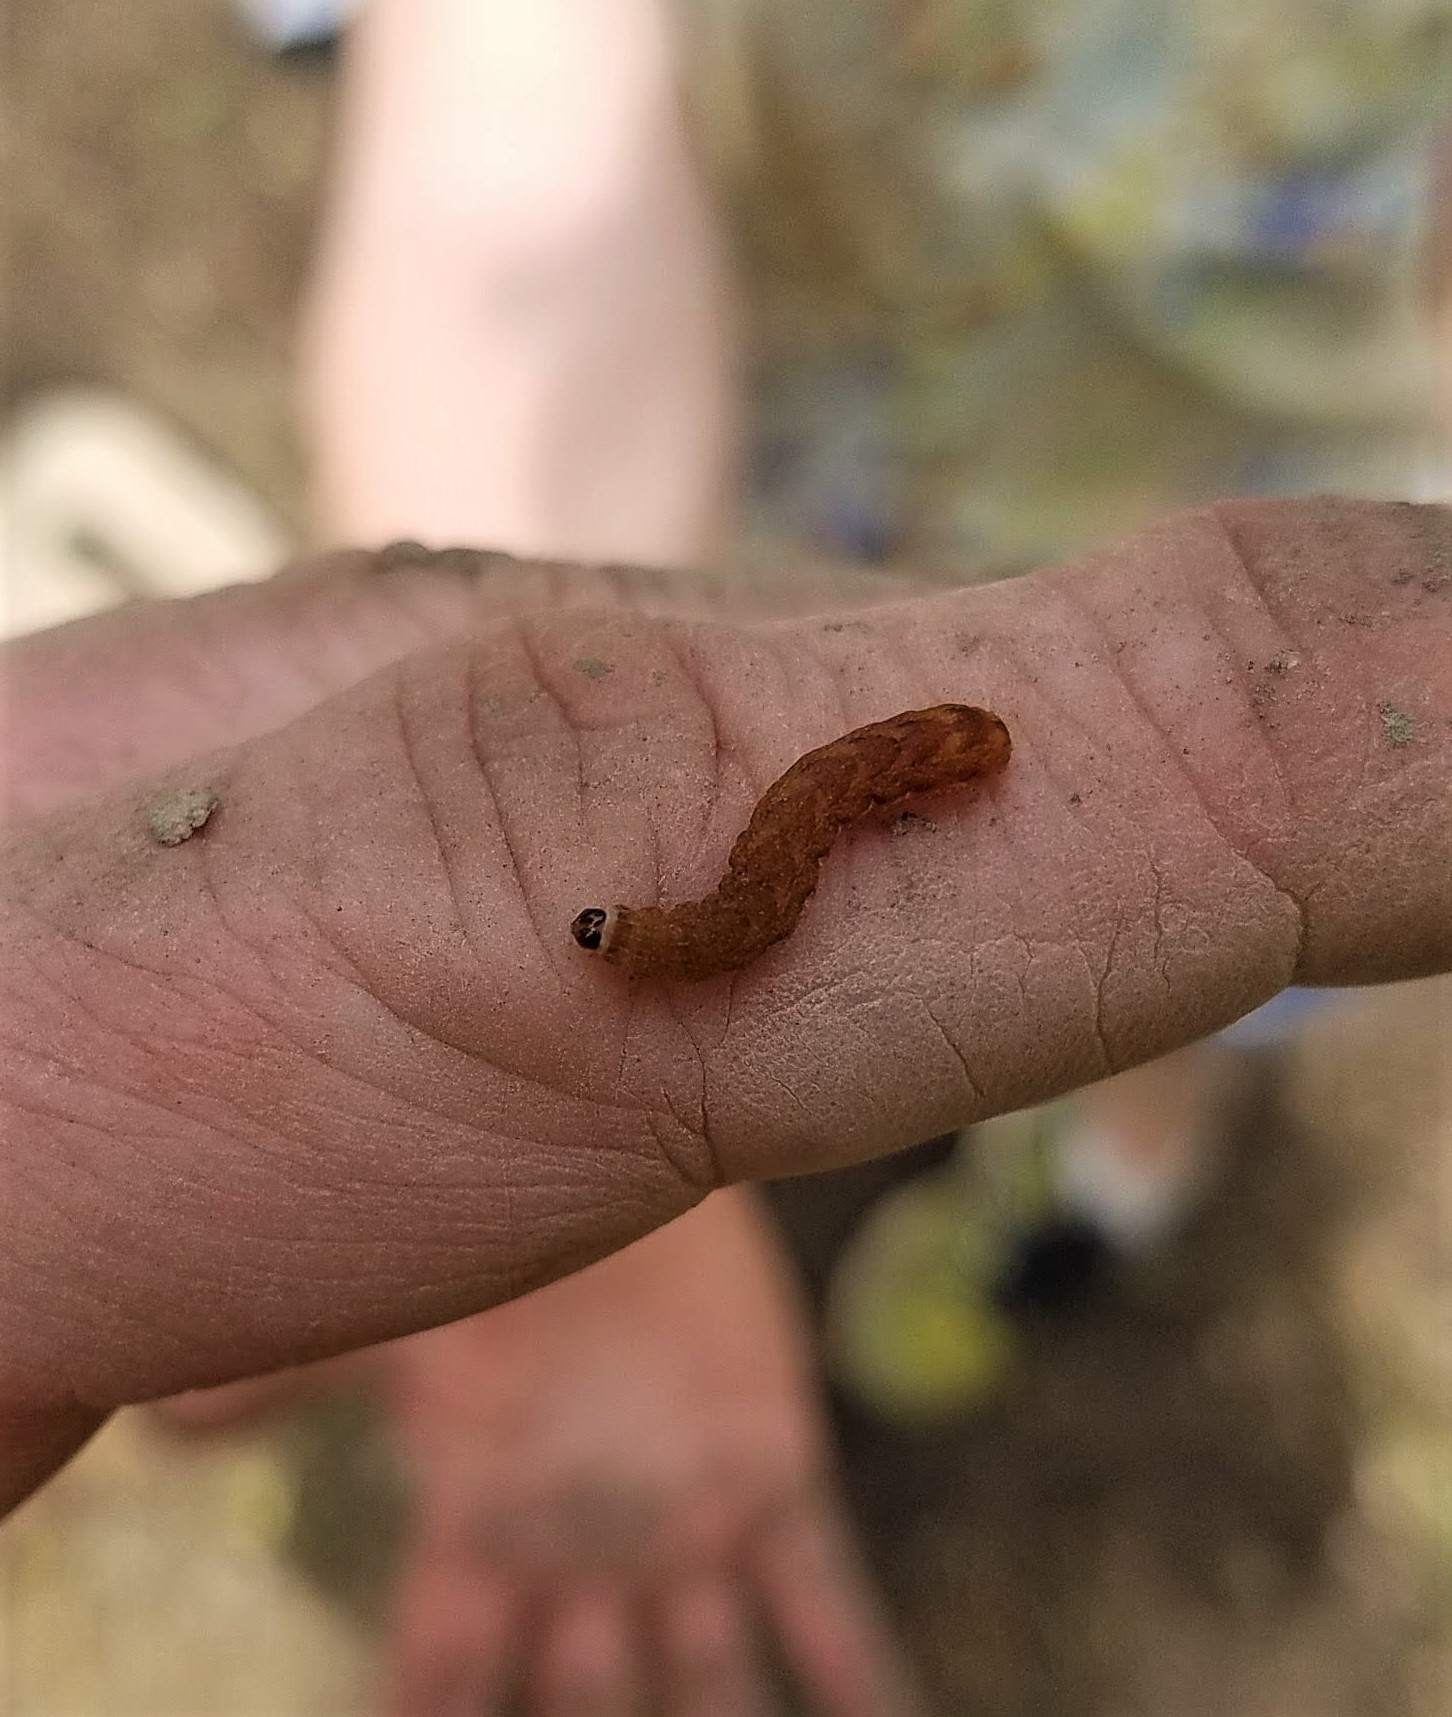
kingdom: Animalia
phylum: Arthropoda
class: Insecta
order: Lepidoptera
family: Noctuidae
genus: Agrochola
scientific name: Agrochola bicolorago
